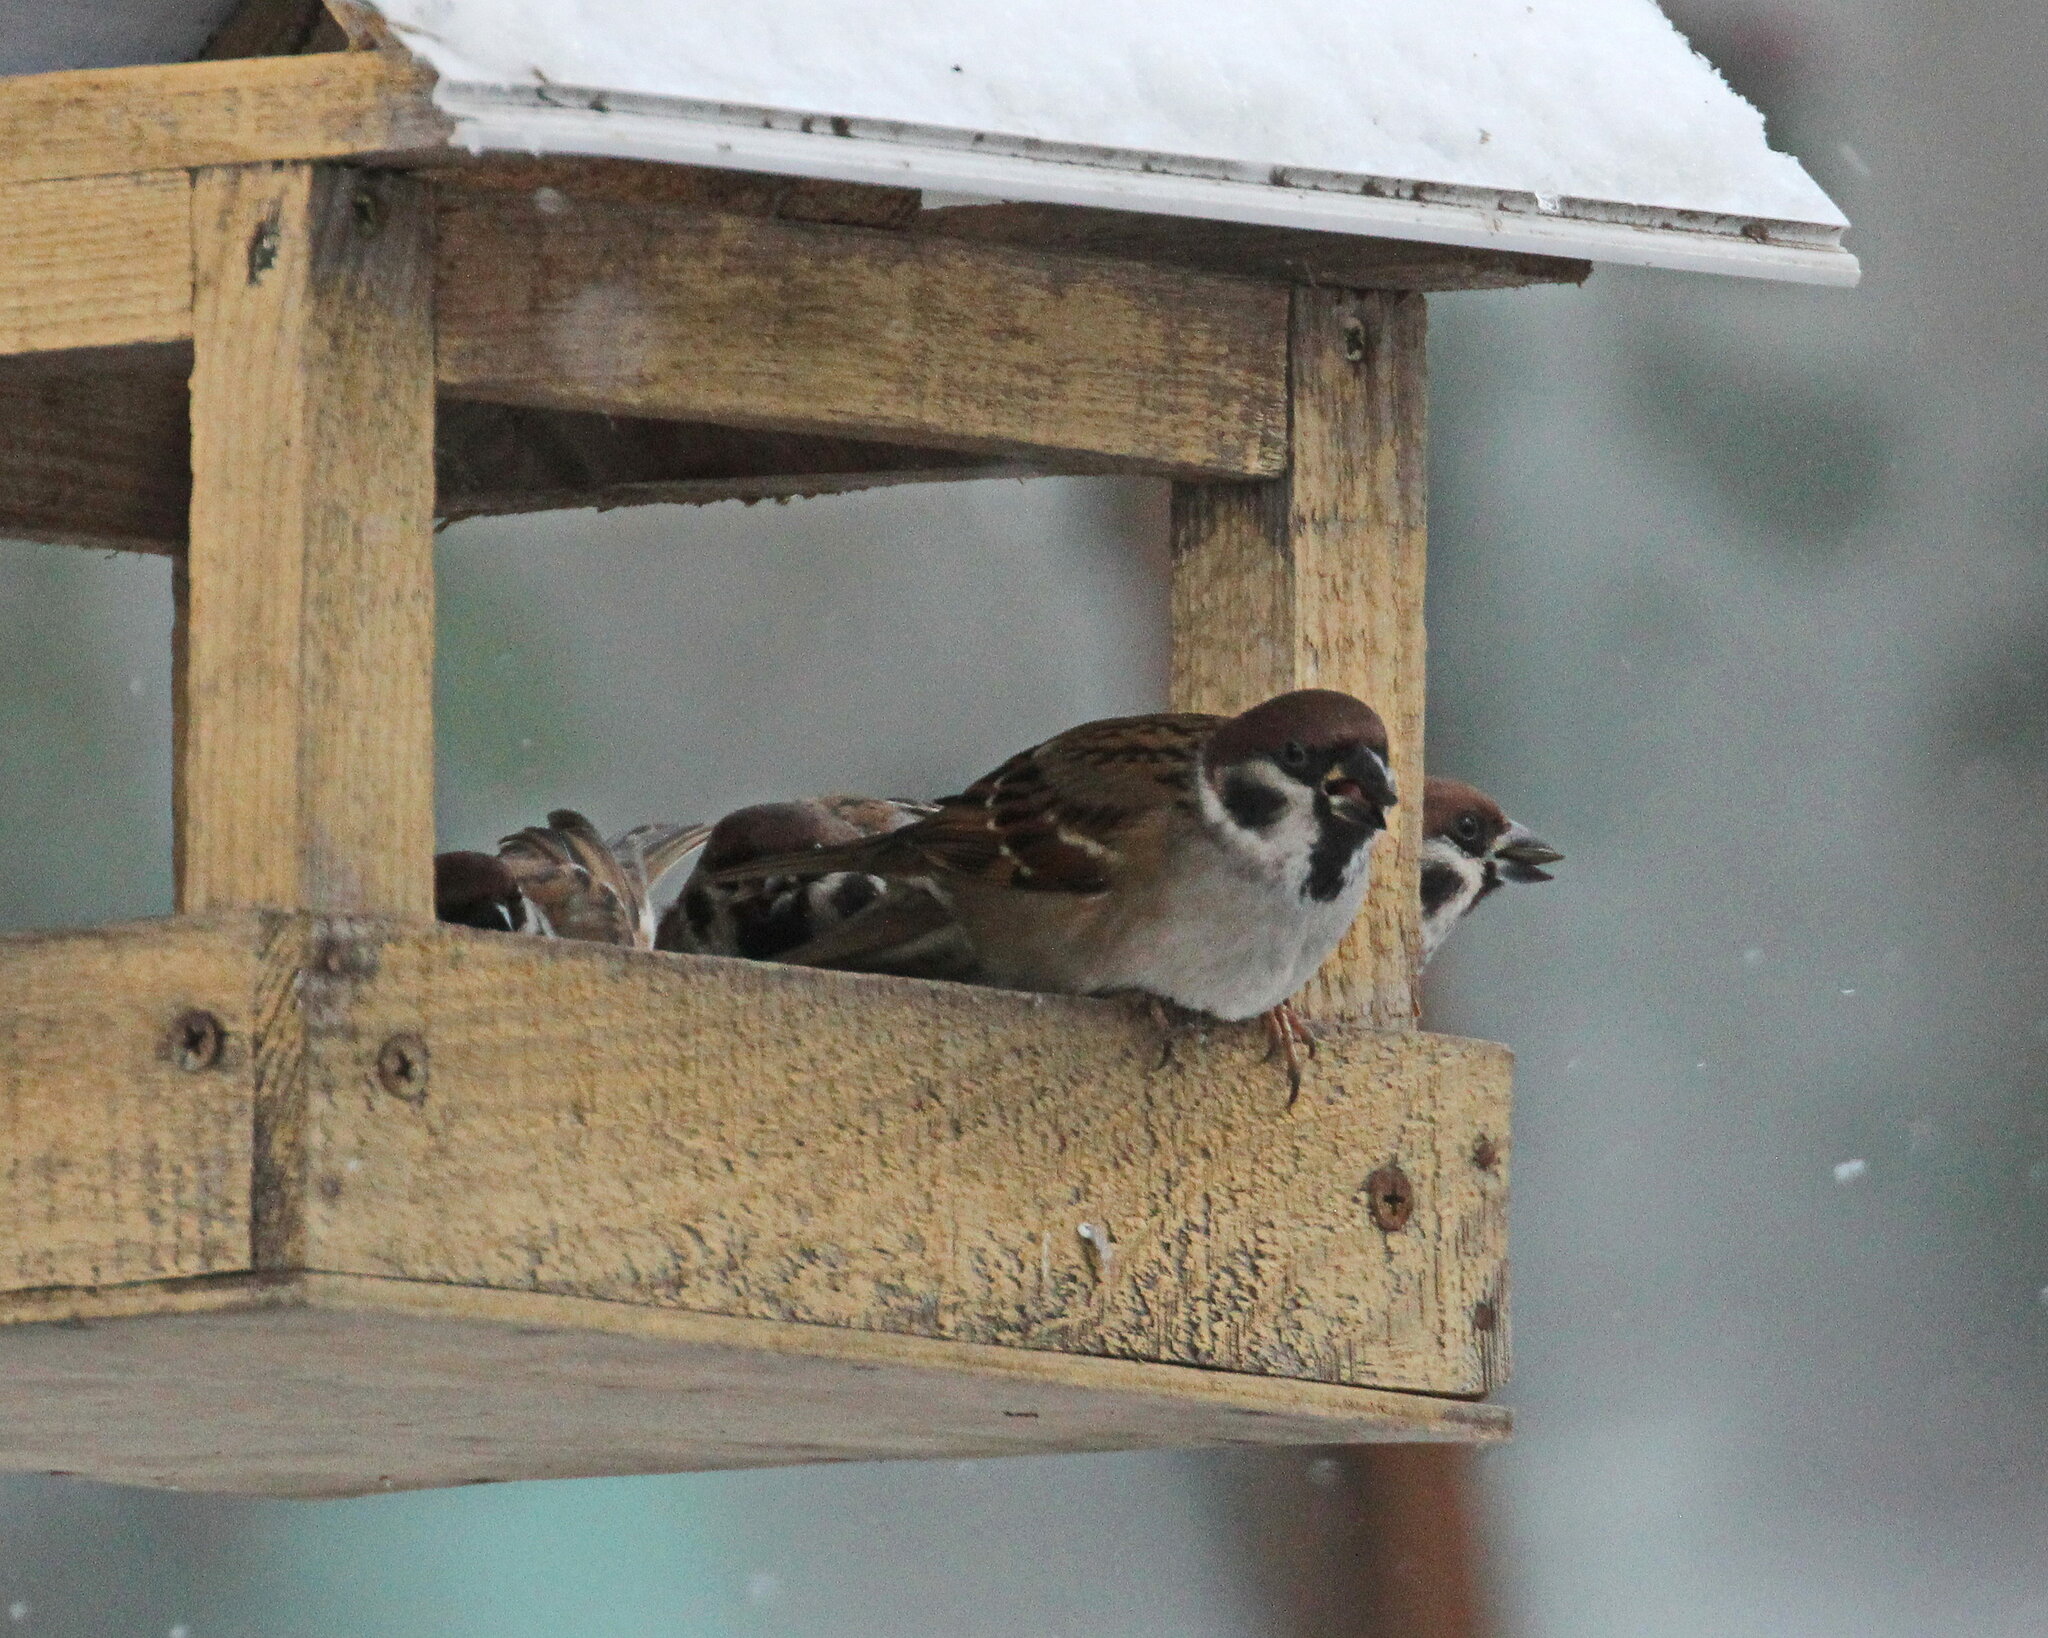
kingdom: Animalia
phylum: Chordata
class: Aves
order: Passeriformes
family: Passeridae
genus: Passer
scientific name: Passer montanus
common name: Eurasian tree sparrow
